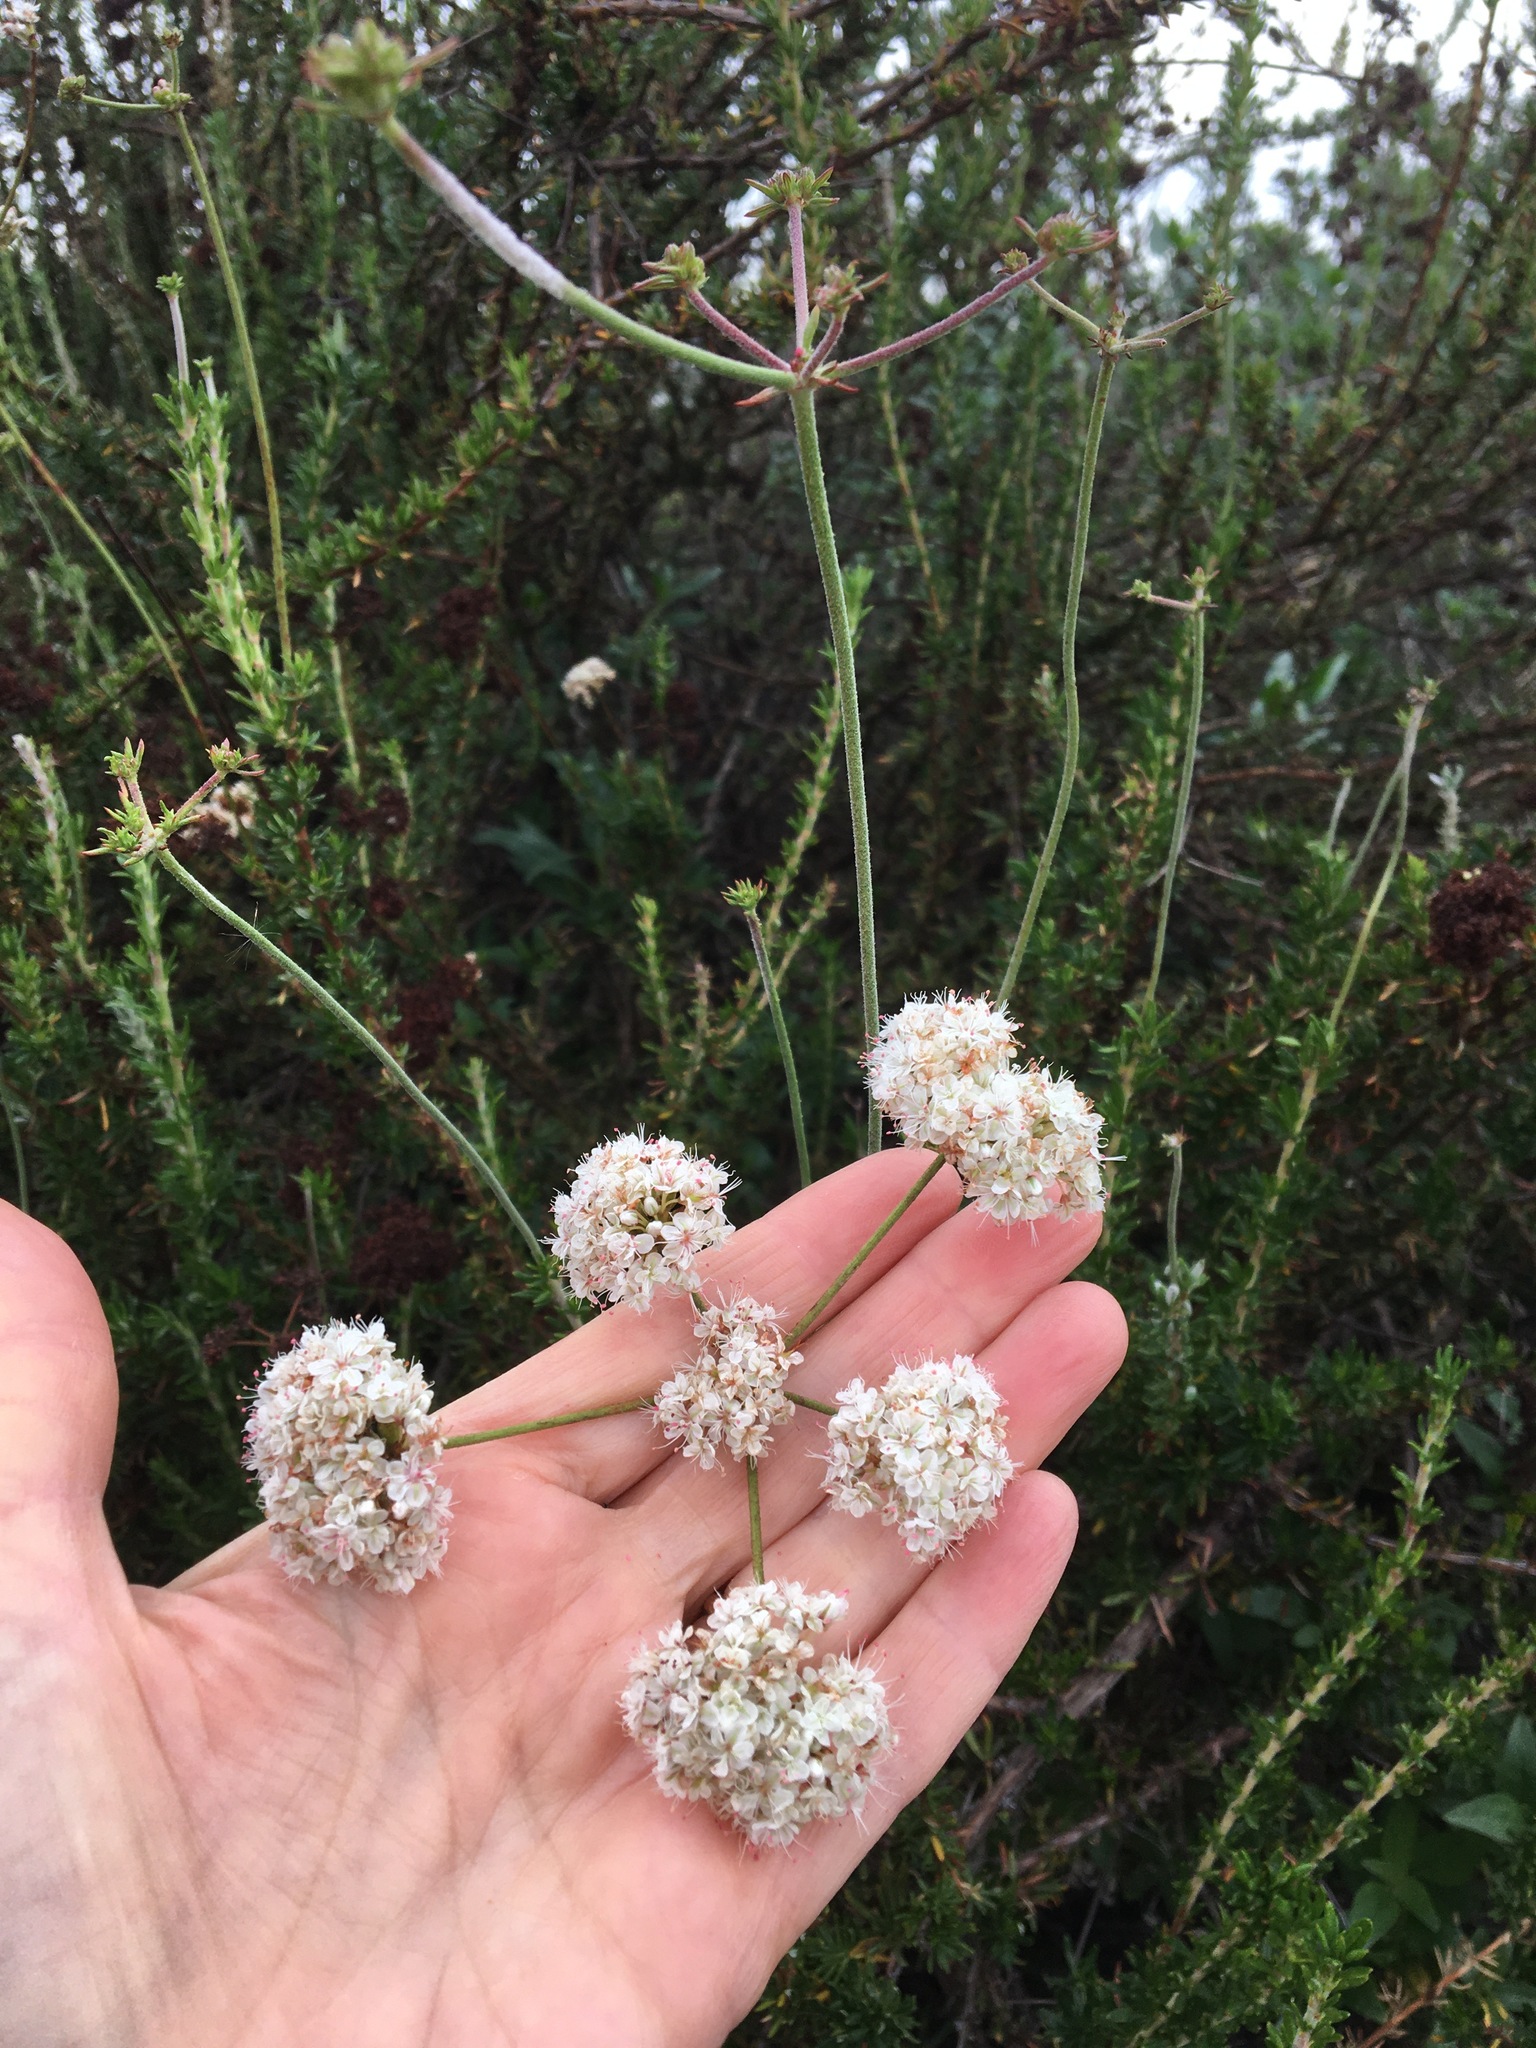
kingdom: Plantae
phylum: Tracheophyta
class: Magnoliopsida
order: Caryophyllales
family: Polygonaceae
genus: Eriogonum
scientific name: Eriogonum fasciculatum
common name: California wild buckwheat
